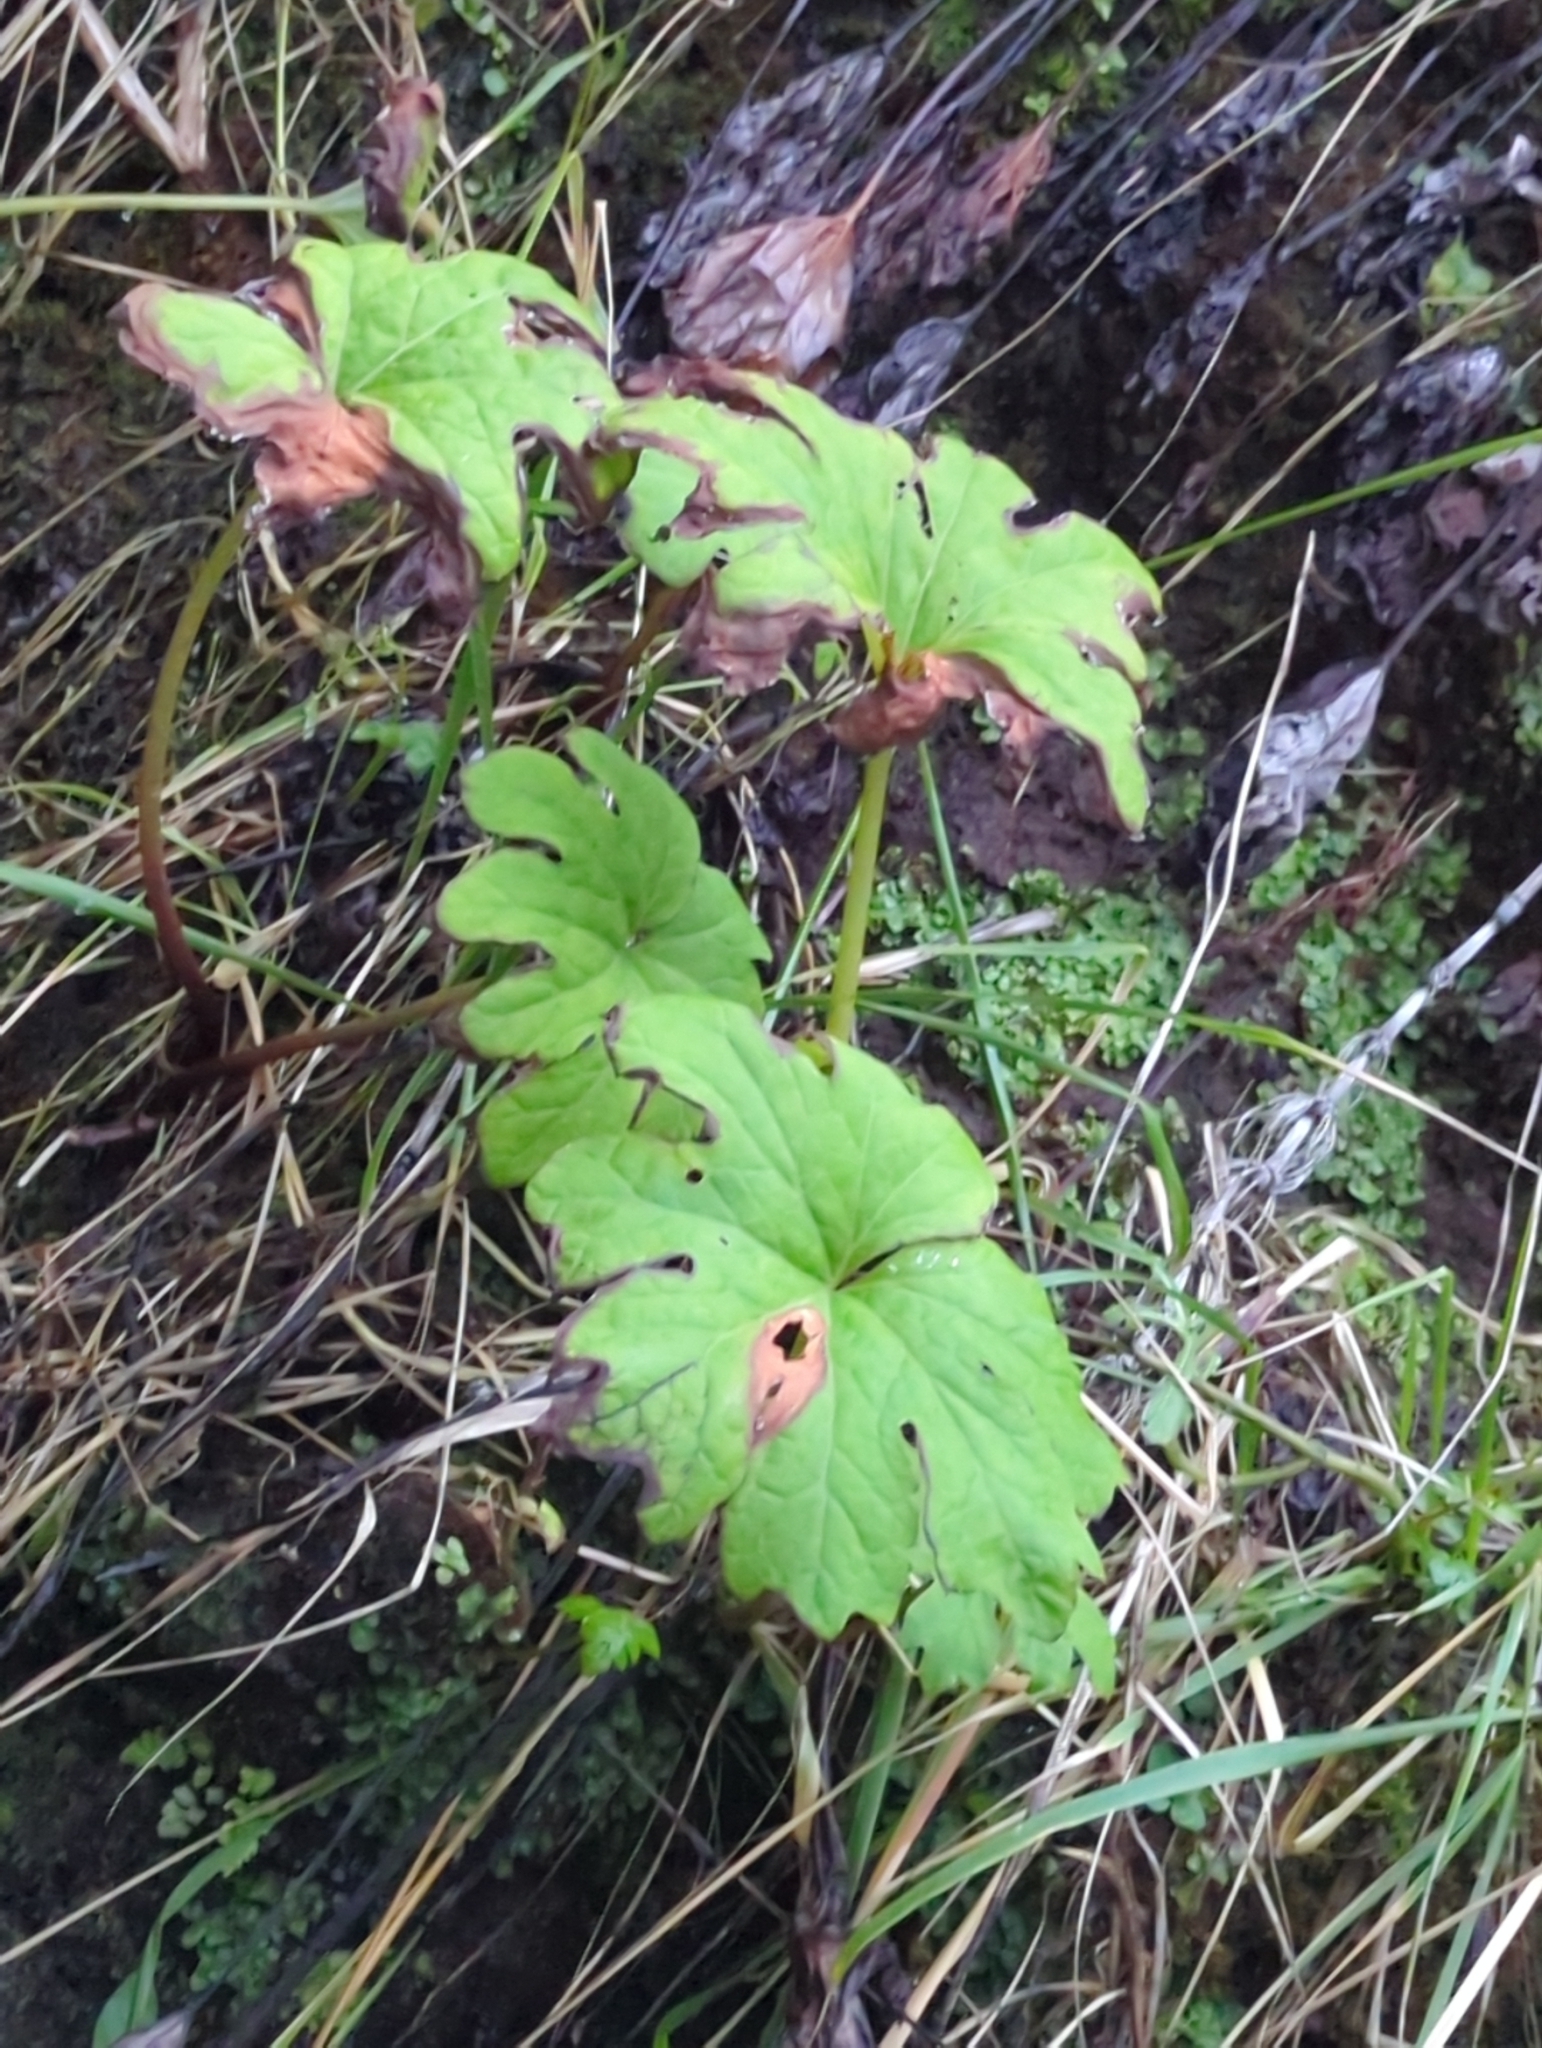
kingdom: Plantae
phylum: Tracheophyta
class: Magnoliopsida
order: Asterales
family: Asteraceae
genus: Petasites
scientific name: Petasites frigidus
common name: Arctic butterbur
